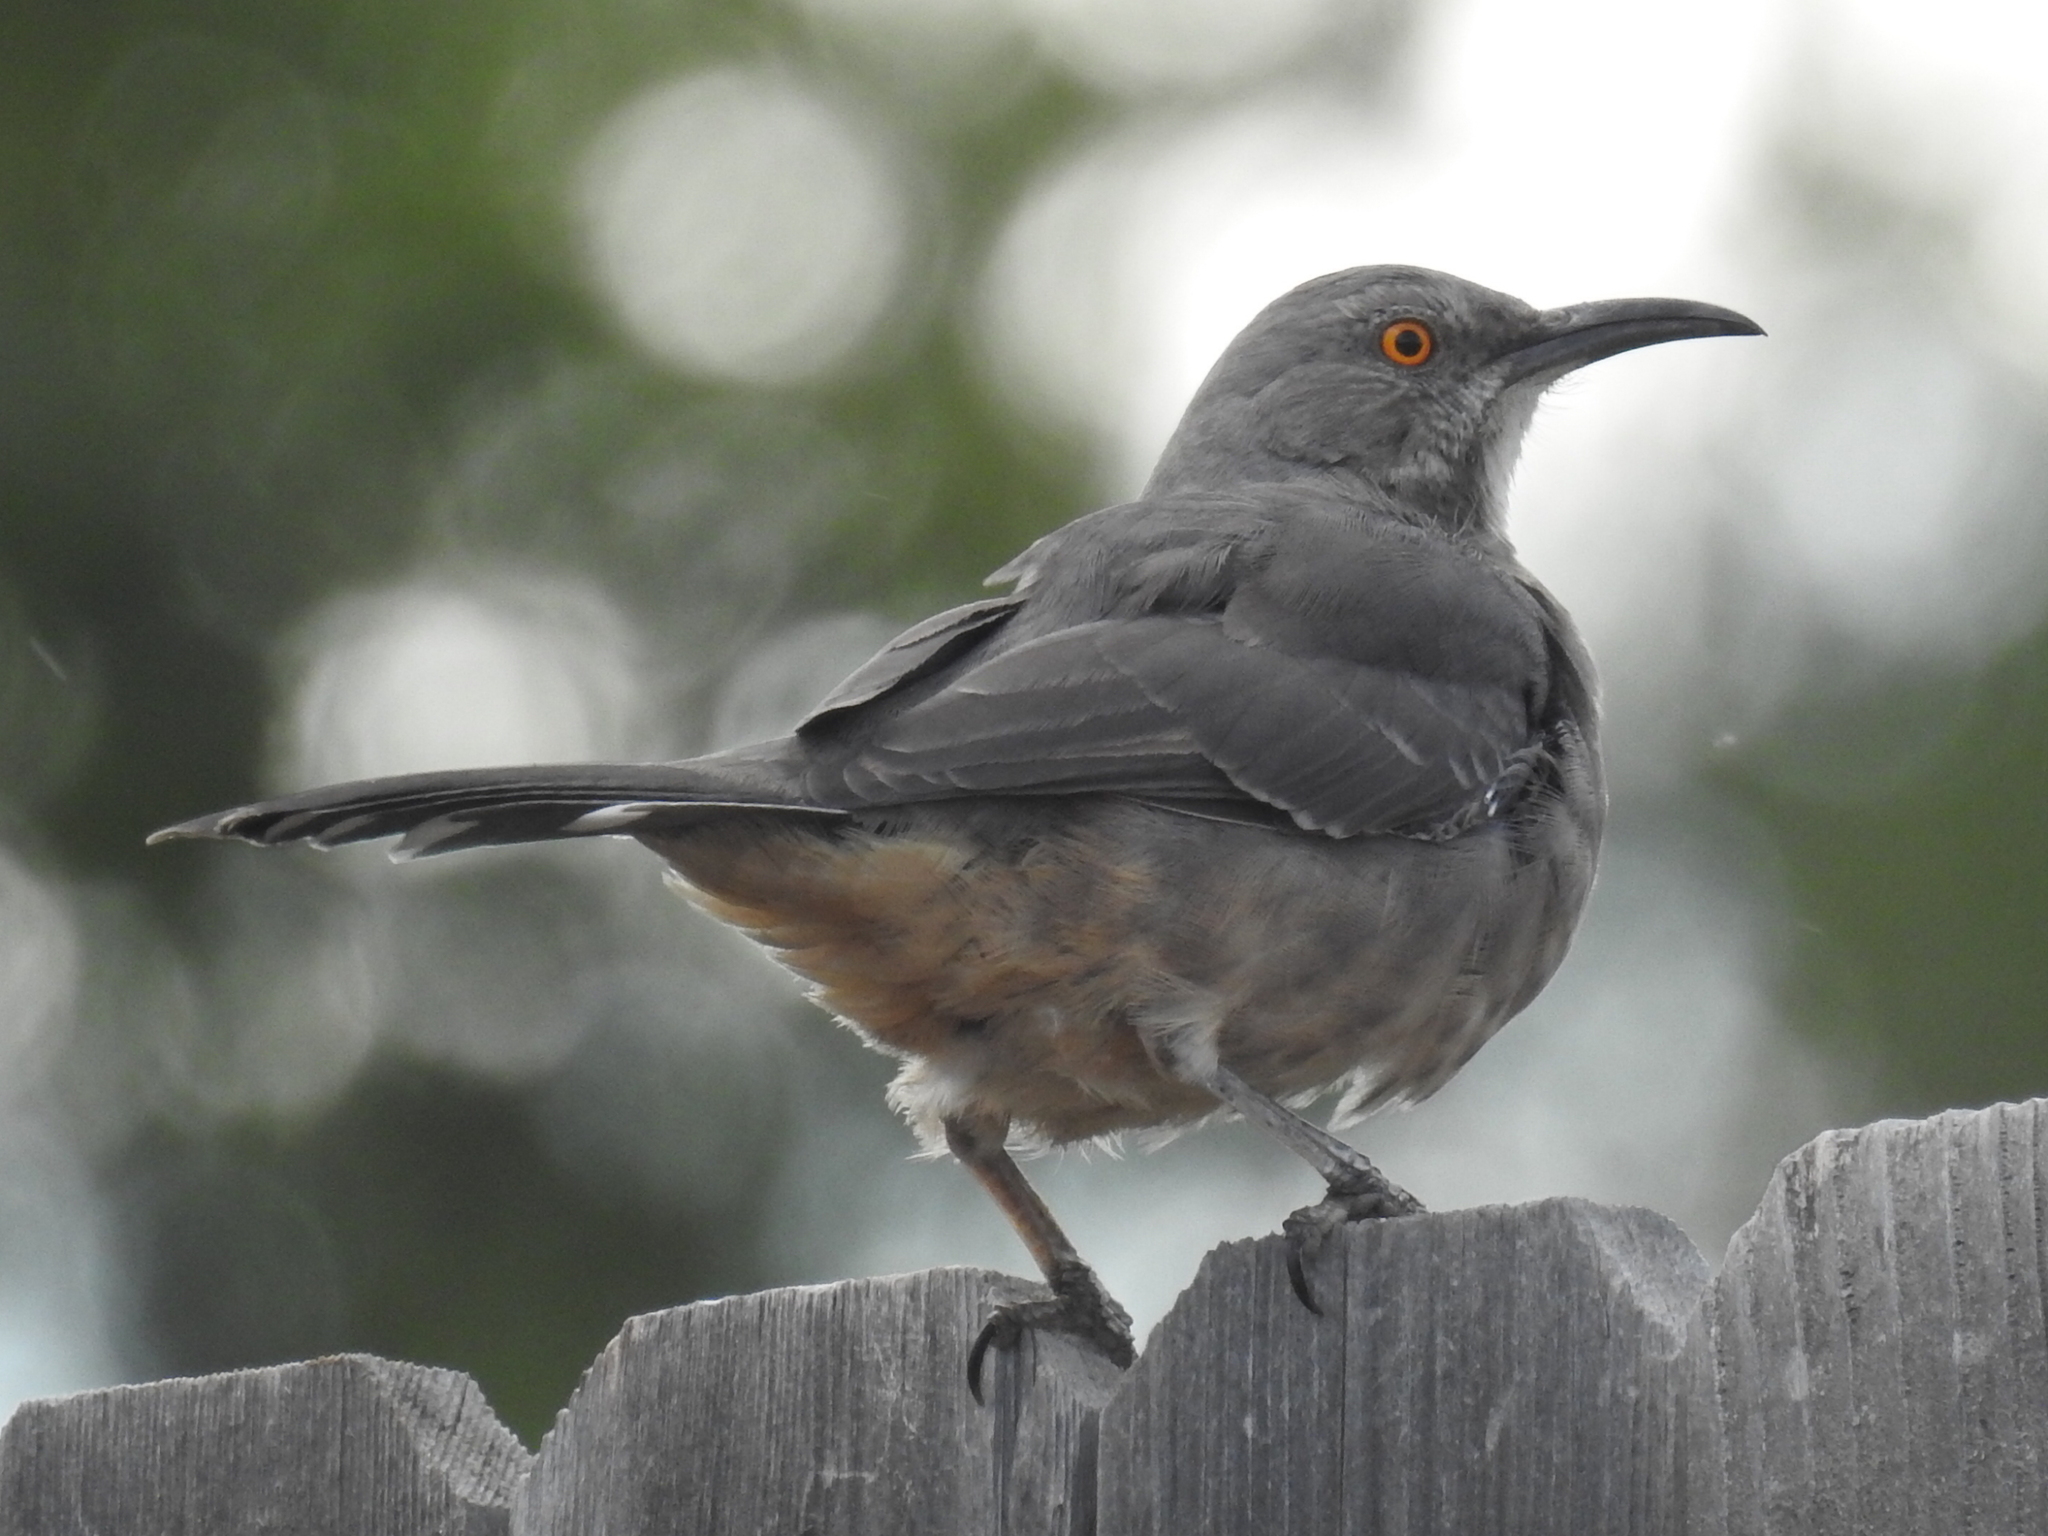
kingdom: Animalia
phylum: Chordata
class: Aves
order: Passeriformes
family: Mimidae
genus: Toxostoma
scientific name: Toxostoma curvirostre
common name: Curve-billed thrasher
